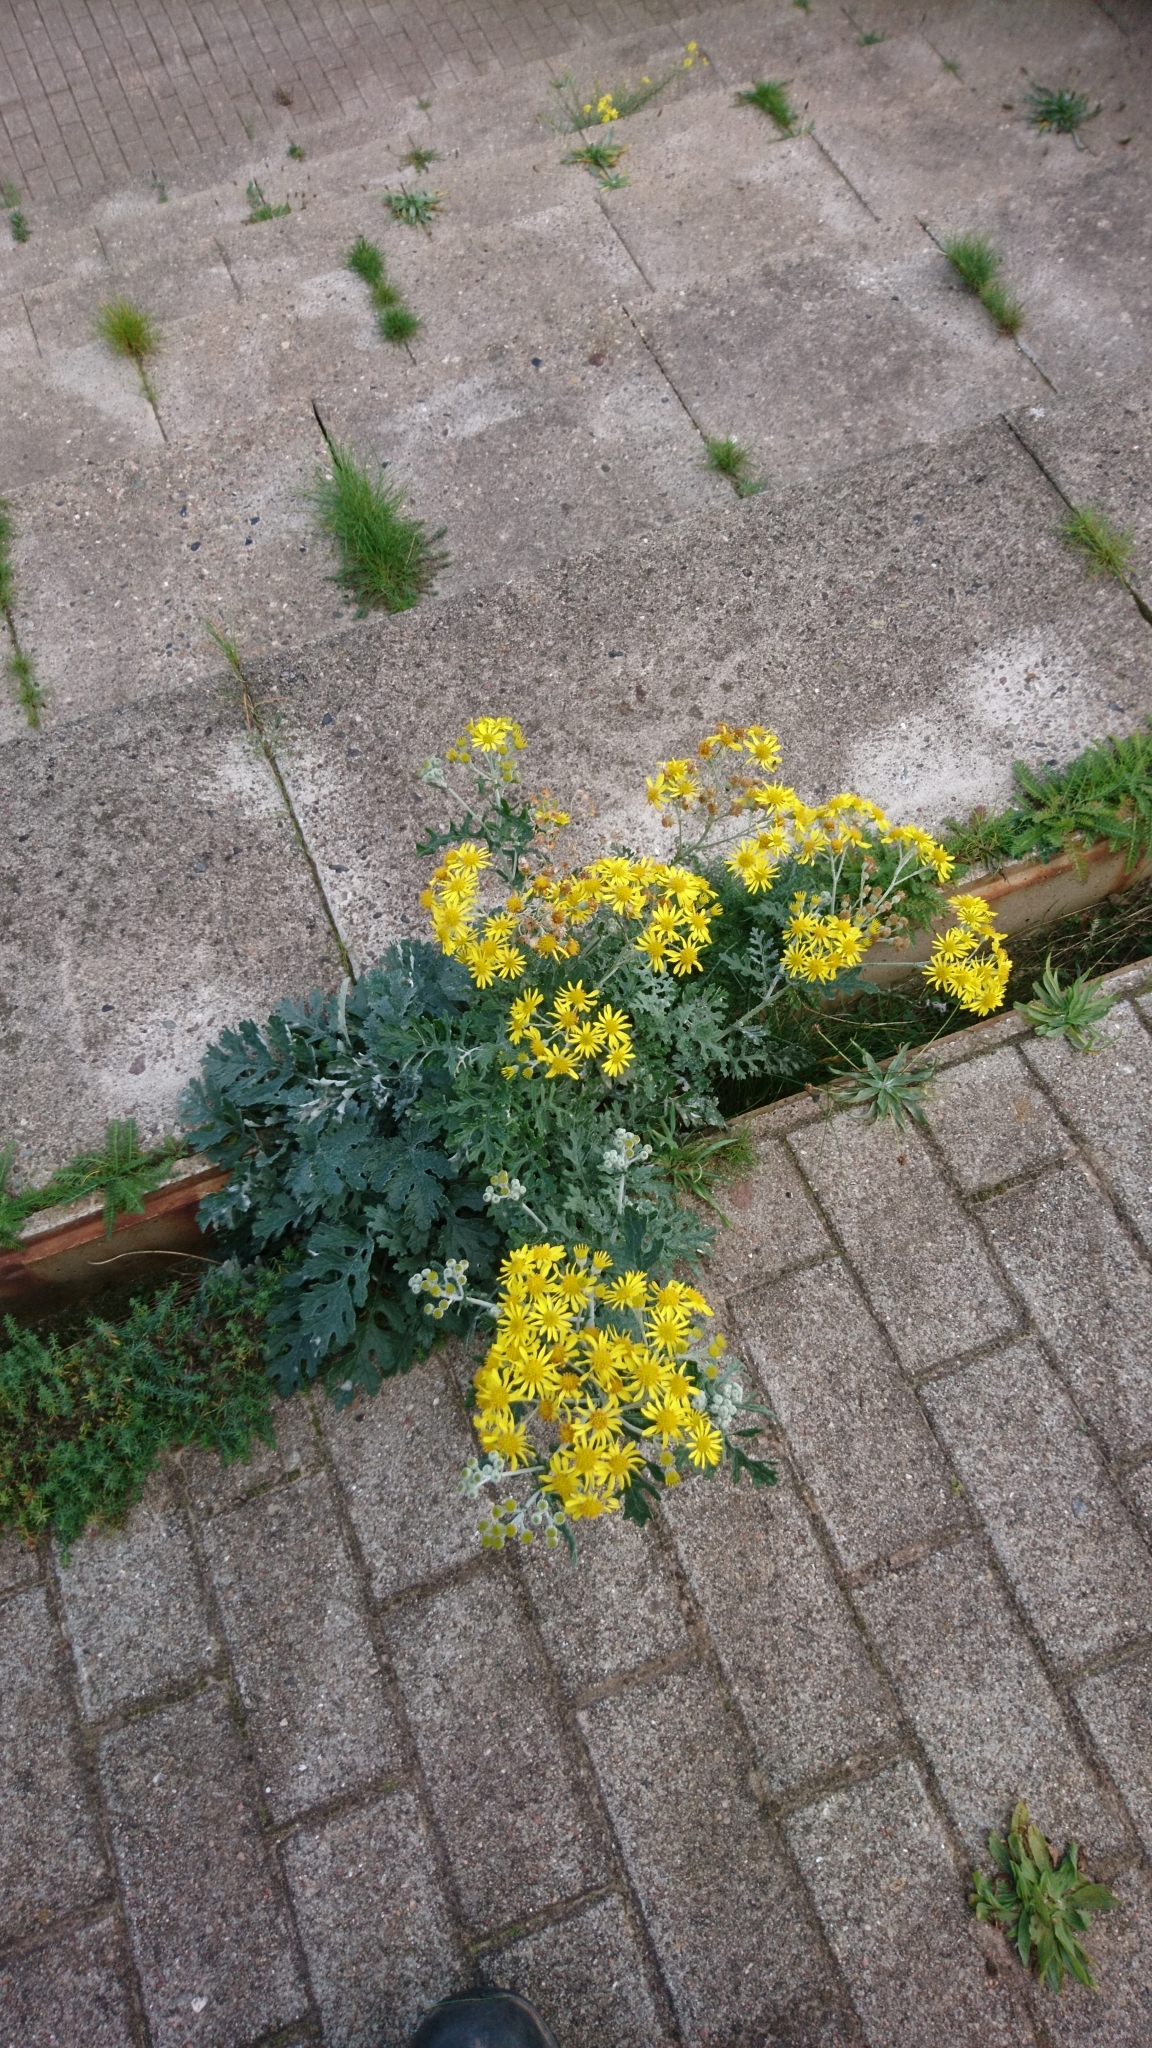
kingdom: Plantae
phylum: Tracheophyta
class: Magnoliopsida
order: Asterales
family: Asteraceae
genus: Jacobaea
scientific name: Jacobaea vulgaris
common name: Stinking willie
